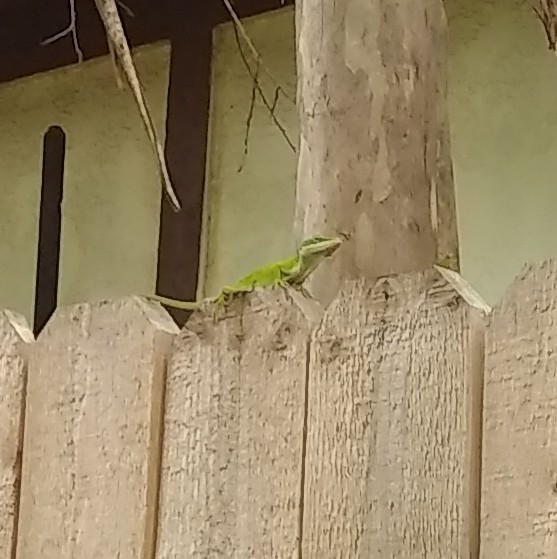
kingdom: Animalia
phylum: Chordata
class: Squamata
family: Dactyloidae
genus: Anolis
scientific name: Anolis carolinensis
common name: Green anole
